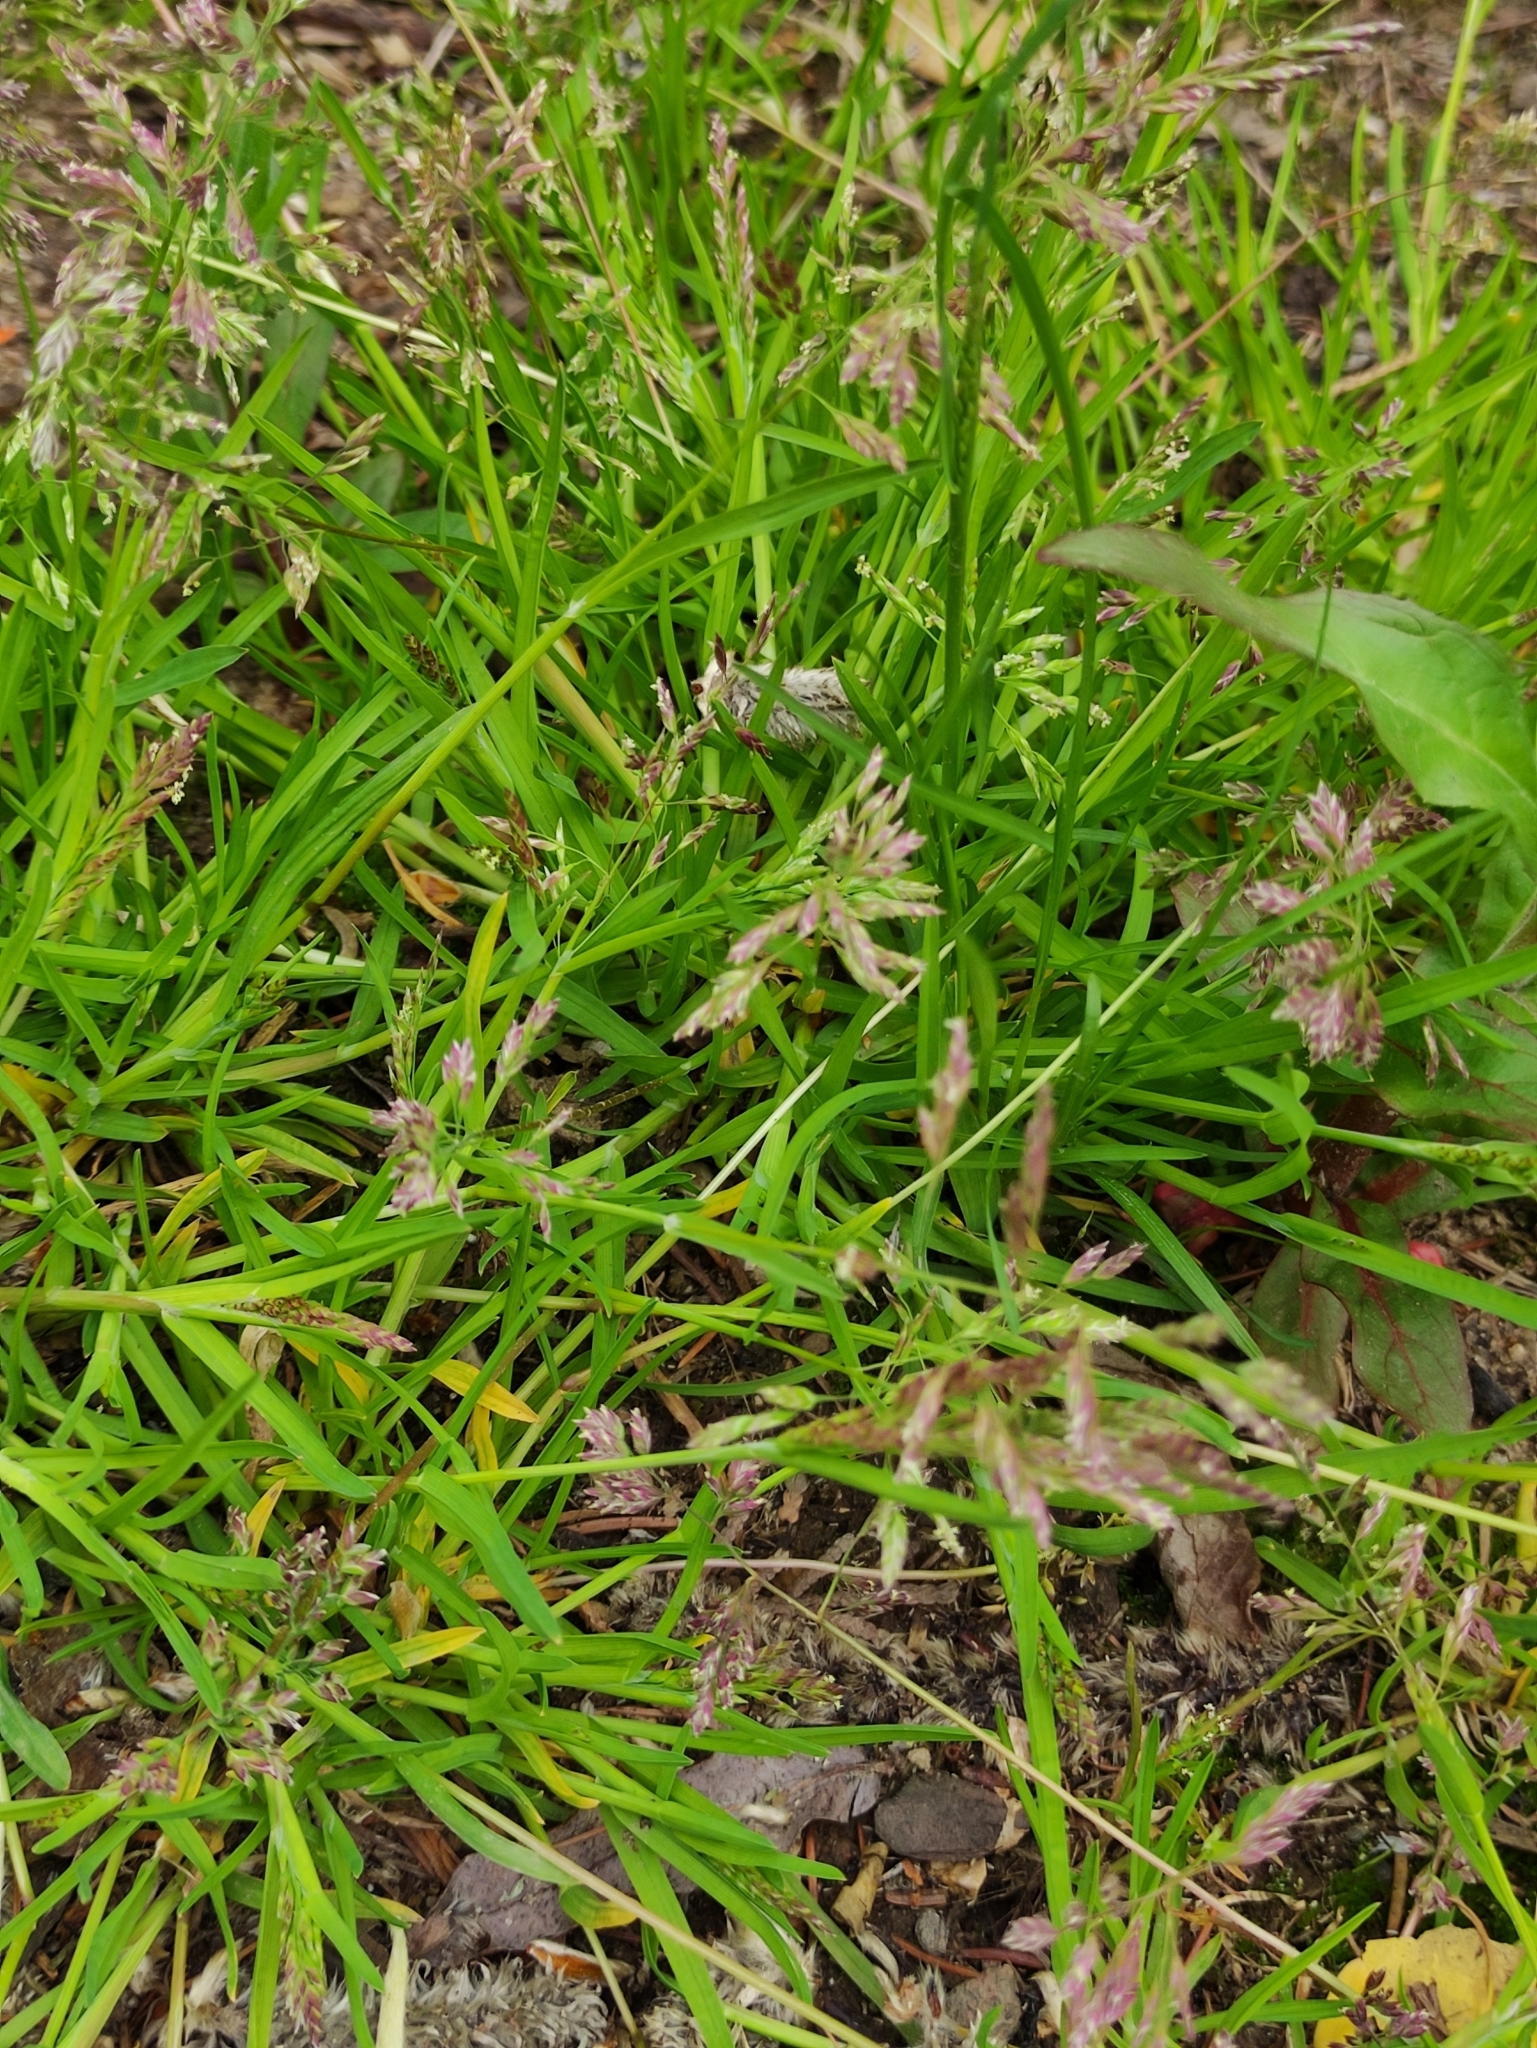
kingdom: Plantae
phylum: Tracheophyta
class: Liliopsida
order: Poales
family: Poaceae
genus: Poa
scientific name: Poa annua
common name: Annual bluegrass
